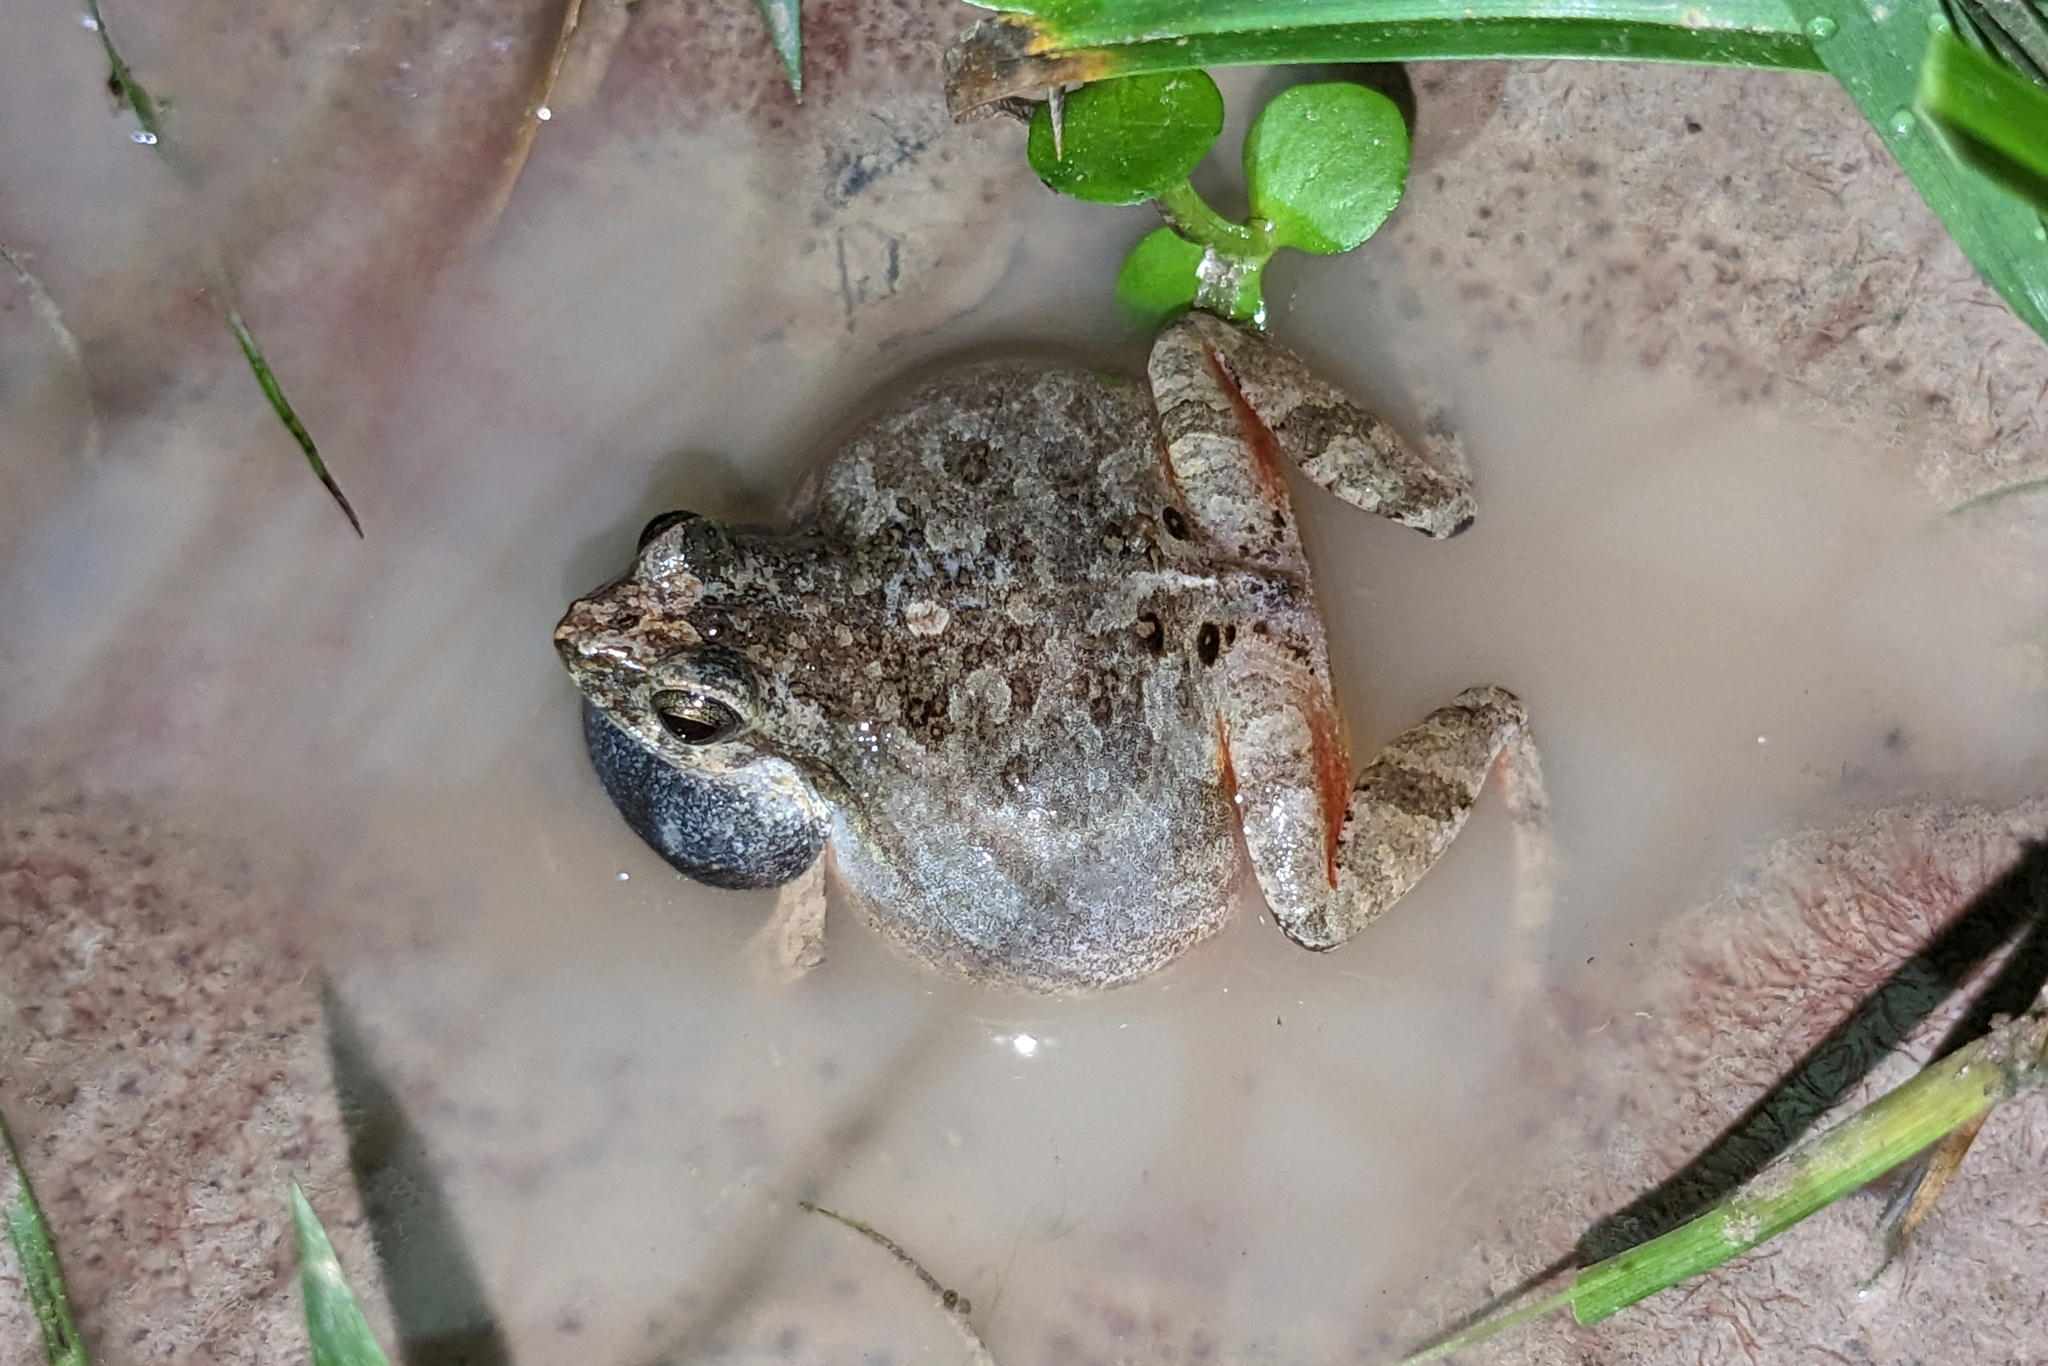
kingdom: Animalia
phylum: Chordata
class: Amphibia
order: Anura
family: Leptodactylidae
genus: Physalaemus
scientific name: Physalaemus ephippifer
